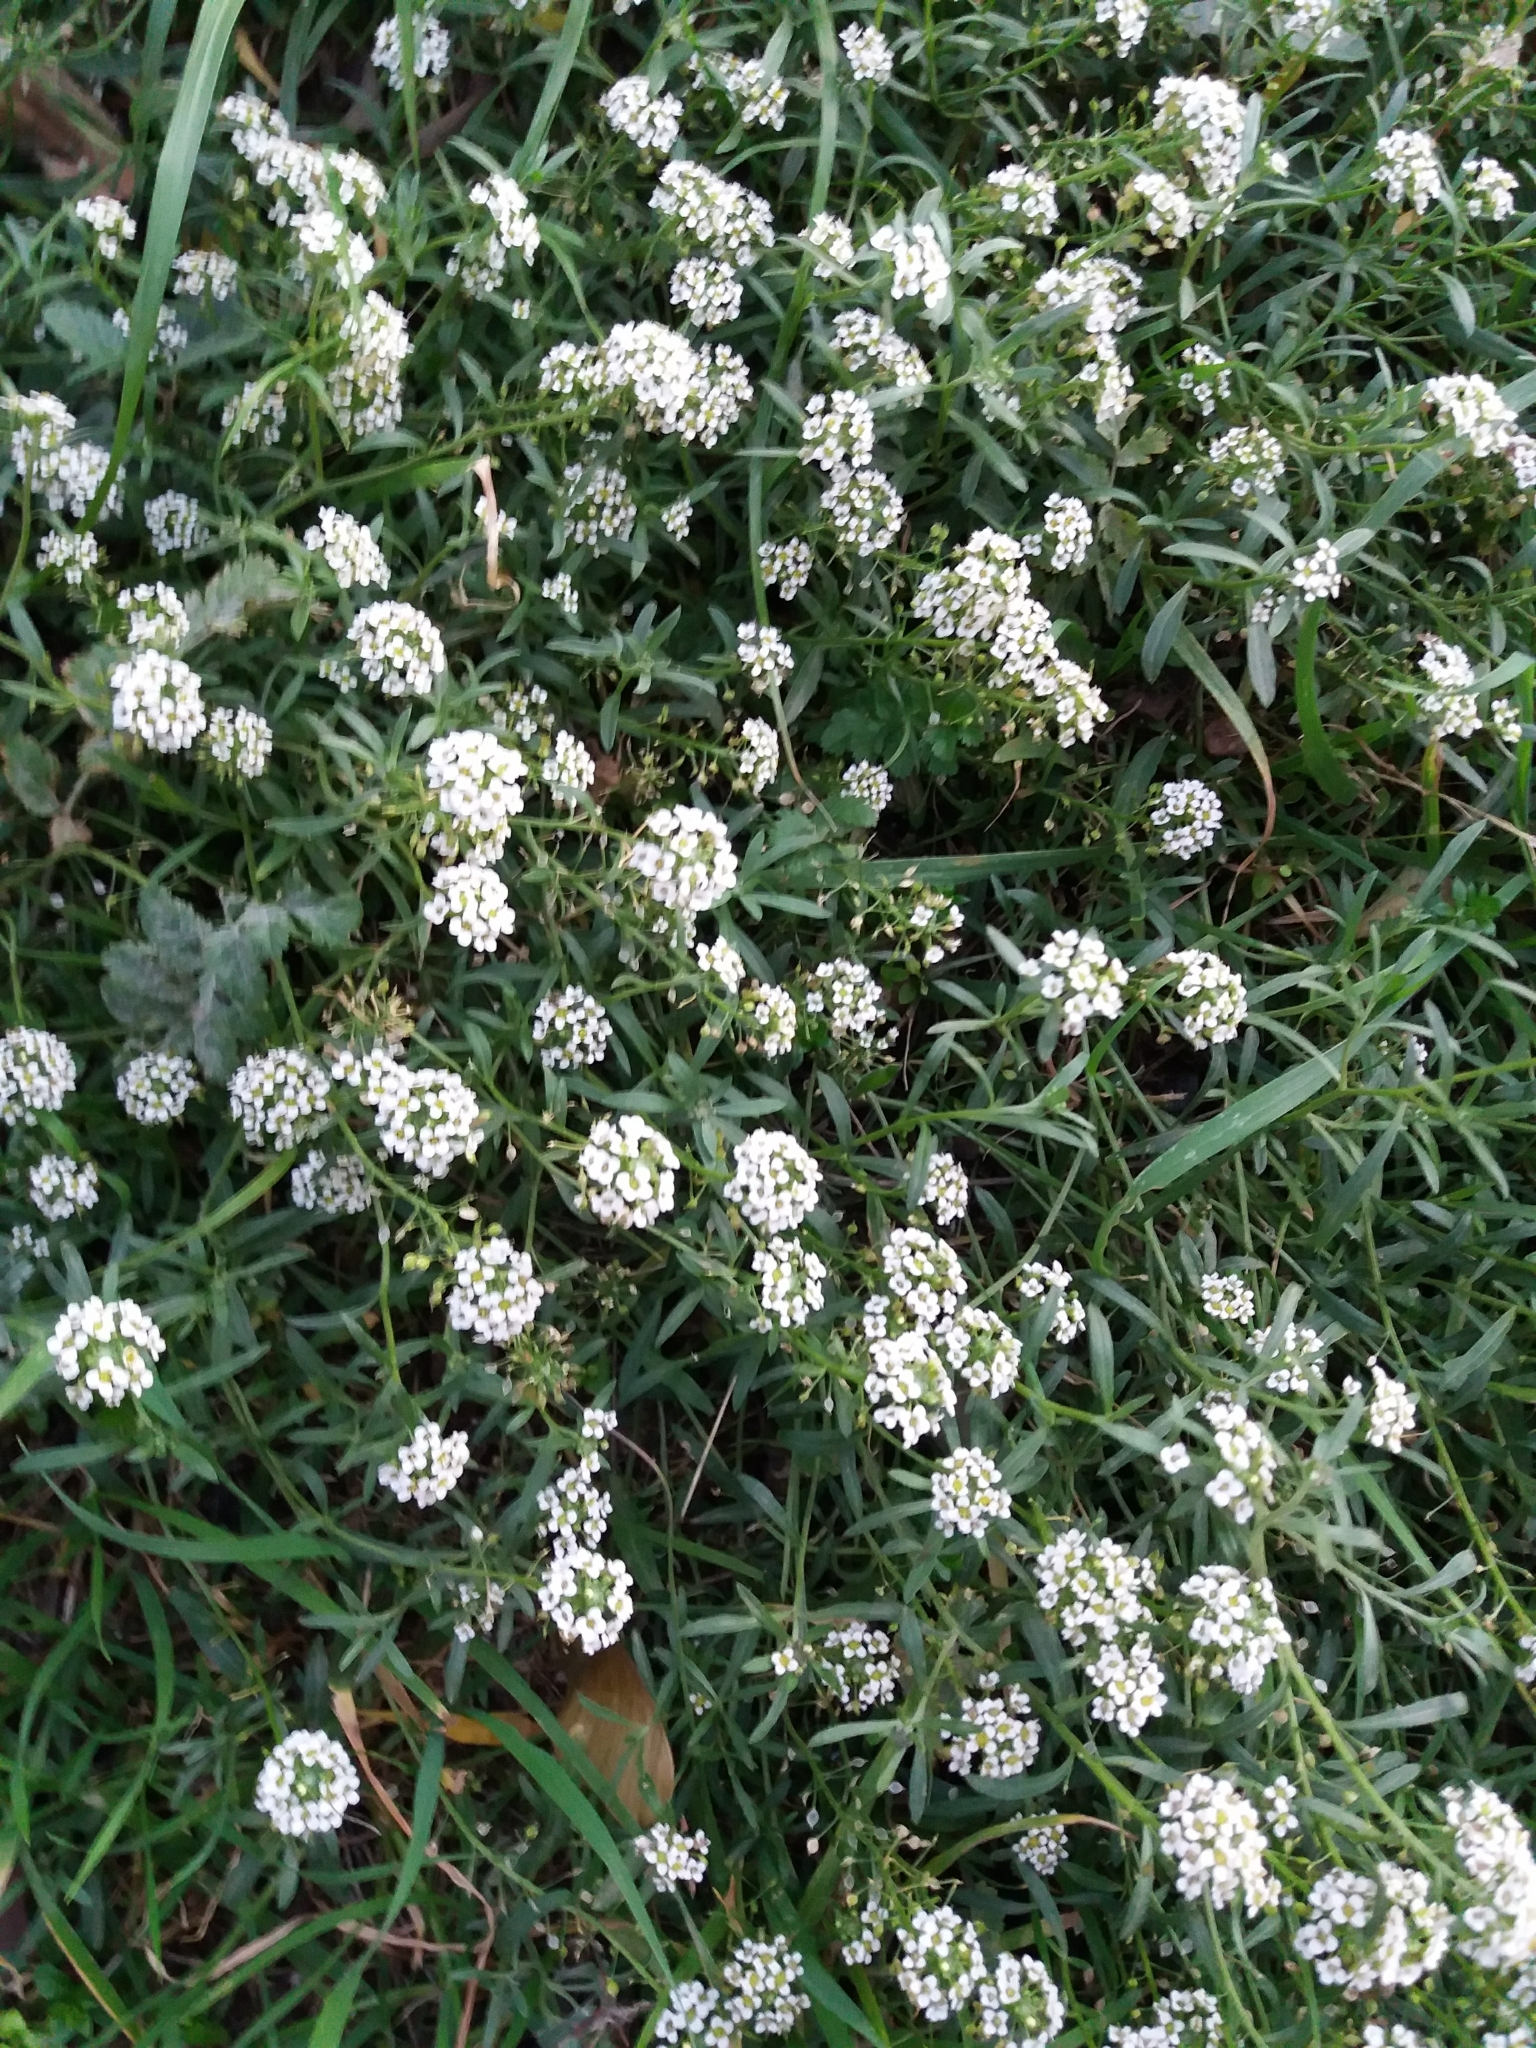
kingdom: Plantae
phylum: Tracheophyta
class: Magnoliopsida
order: Brassicales
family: Brassicaceae
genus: Lobularia
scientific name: Lobularia maritima
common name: Sweet alison
